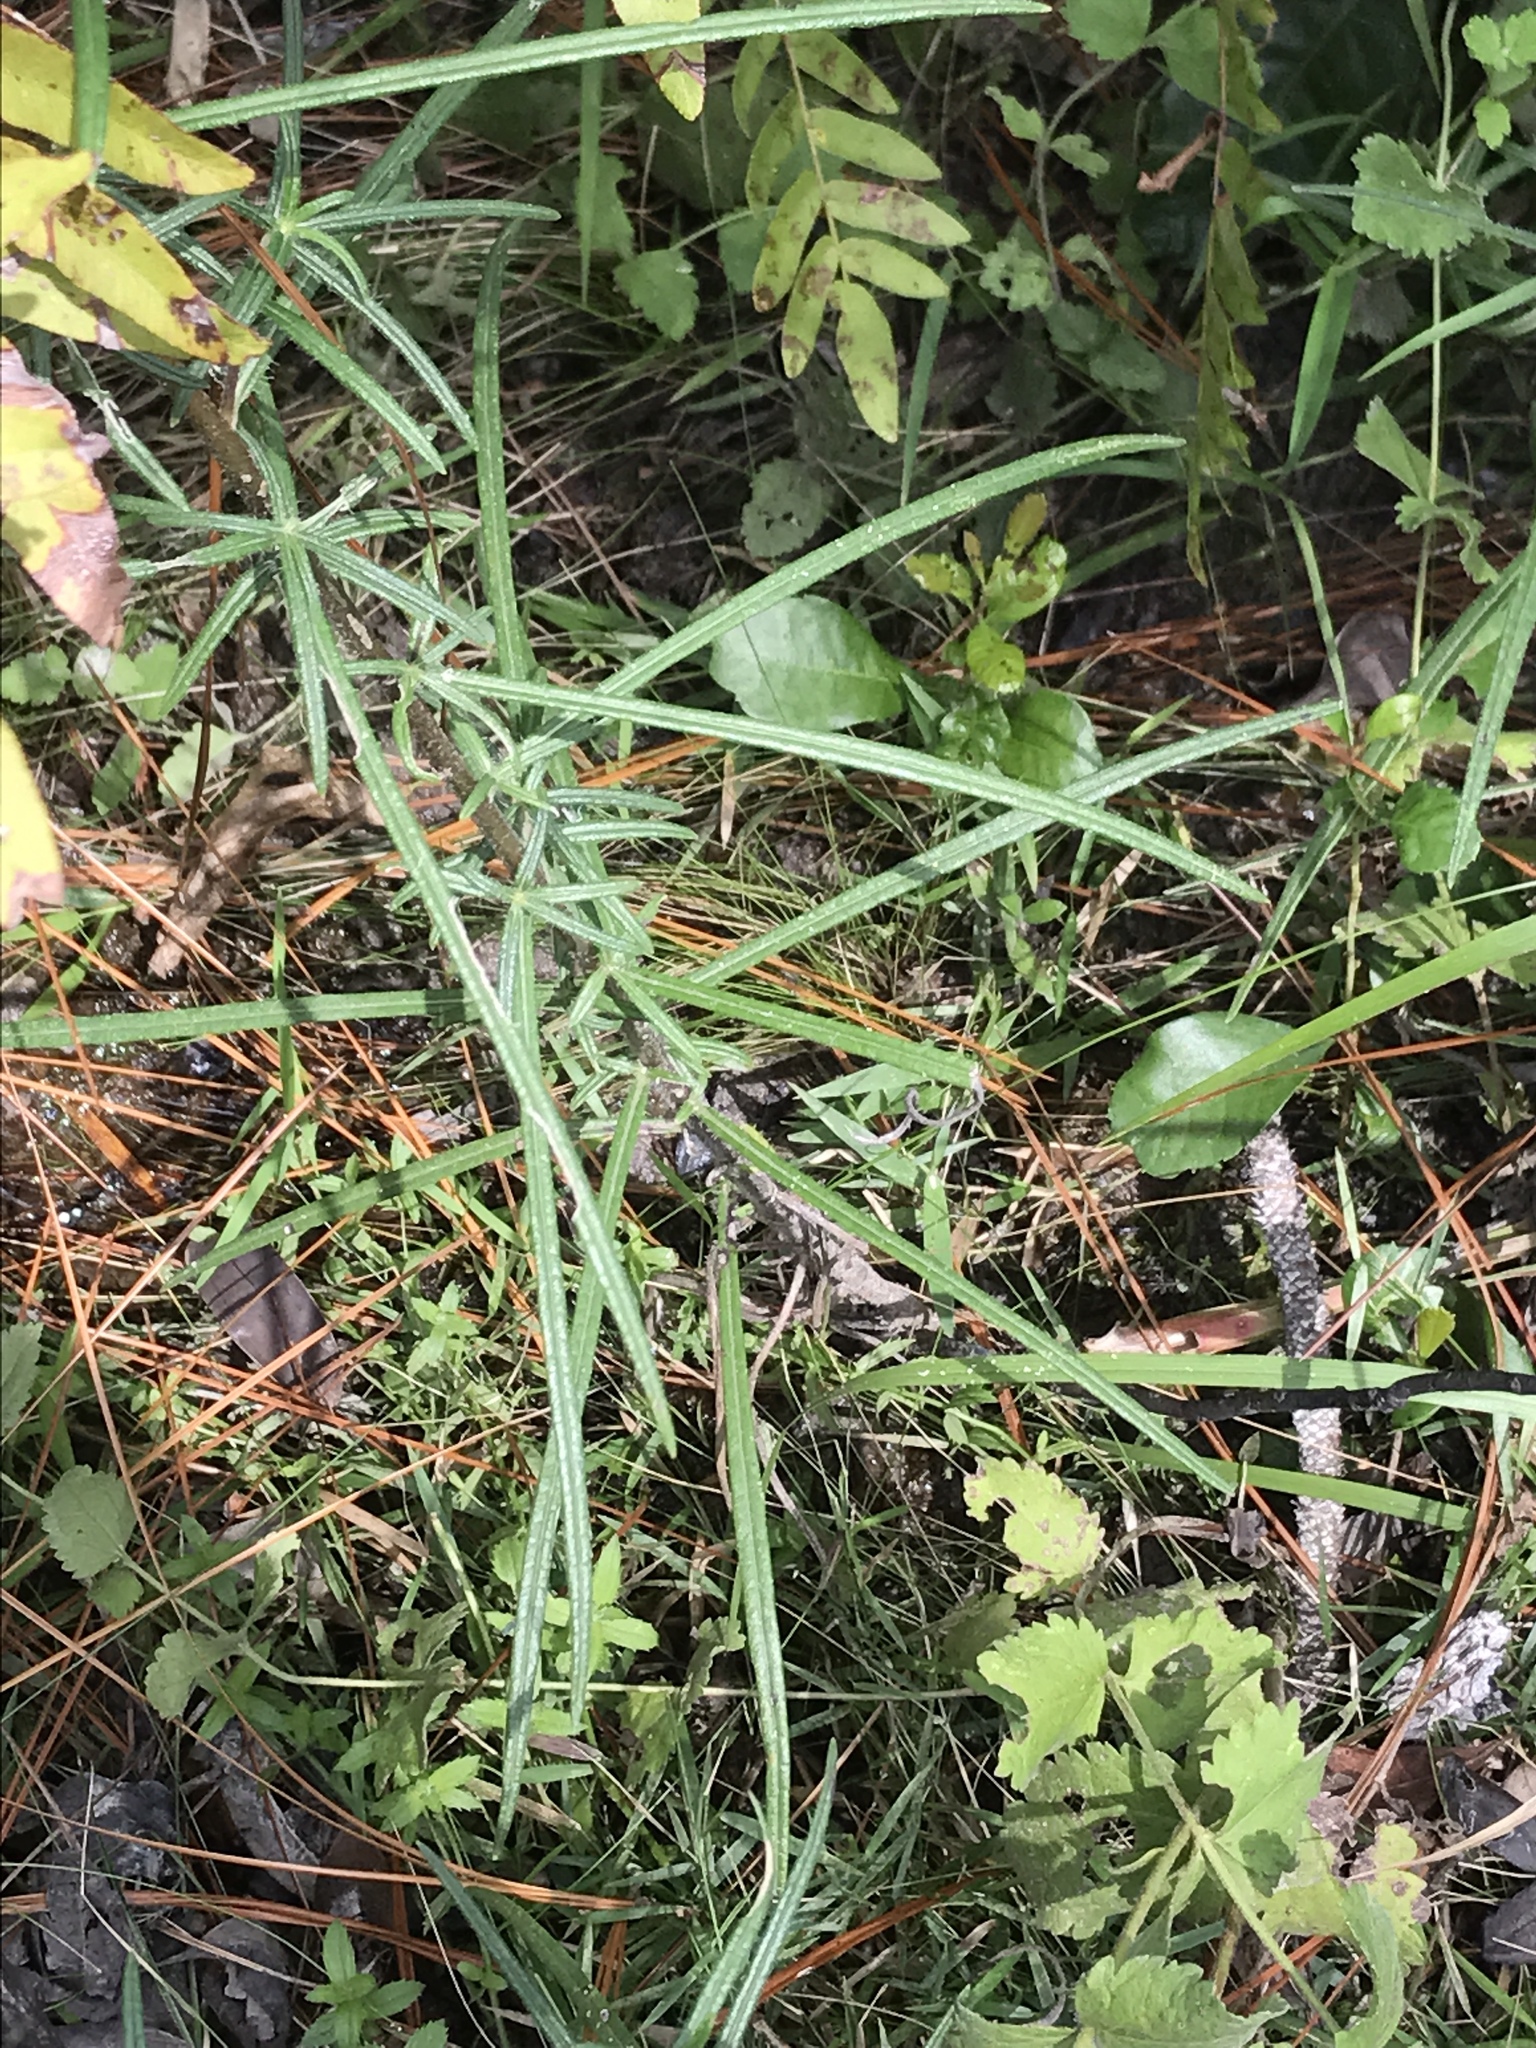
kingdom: Plantae
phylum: Tracheophyta
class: Magnoliopsida
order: Asterales
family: Asteraceae
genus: Helianthus
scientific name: Helianthus angustifolius
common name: Swamp sunflower
